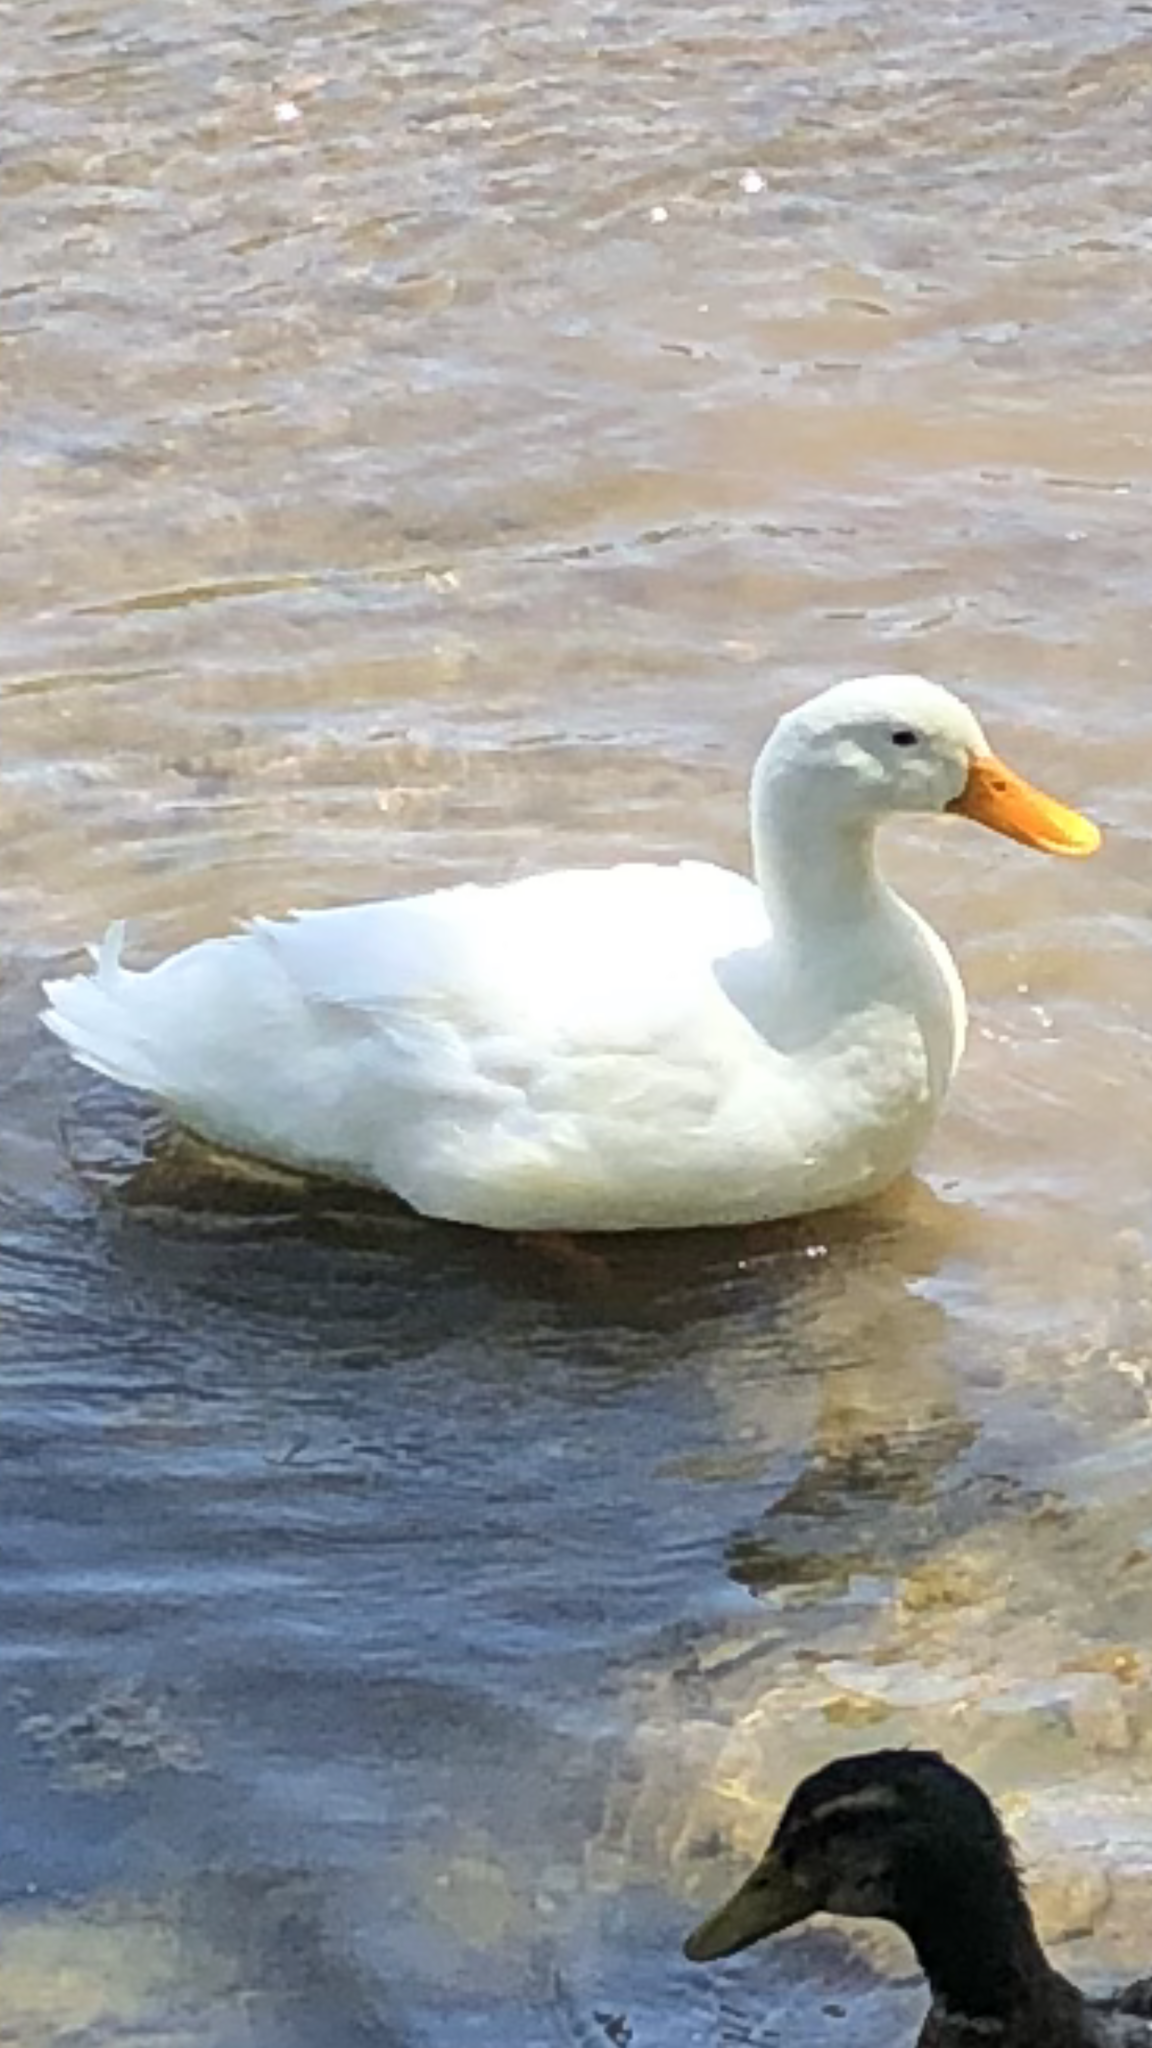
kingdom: Animalia
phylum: Chordata
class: Aves
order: Anseriformes
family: Anatidae
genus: Anas
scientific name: Anas platyrhynchos
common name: Mallard
